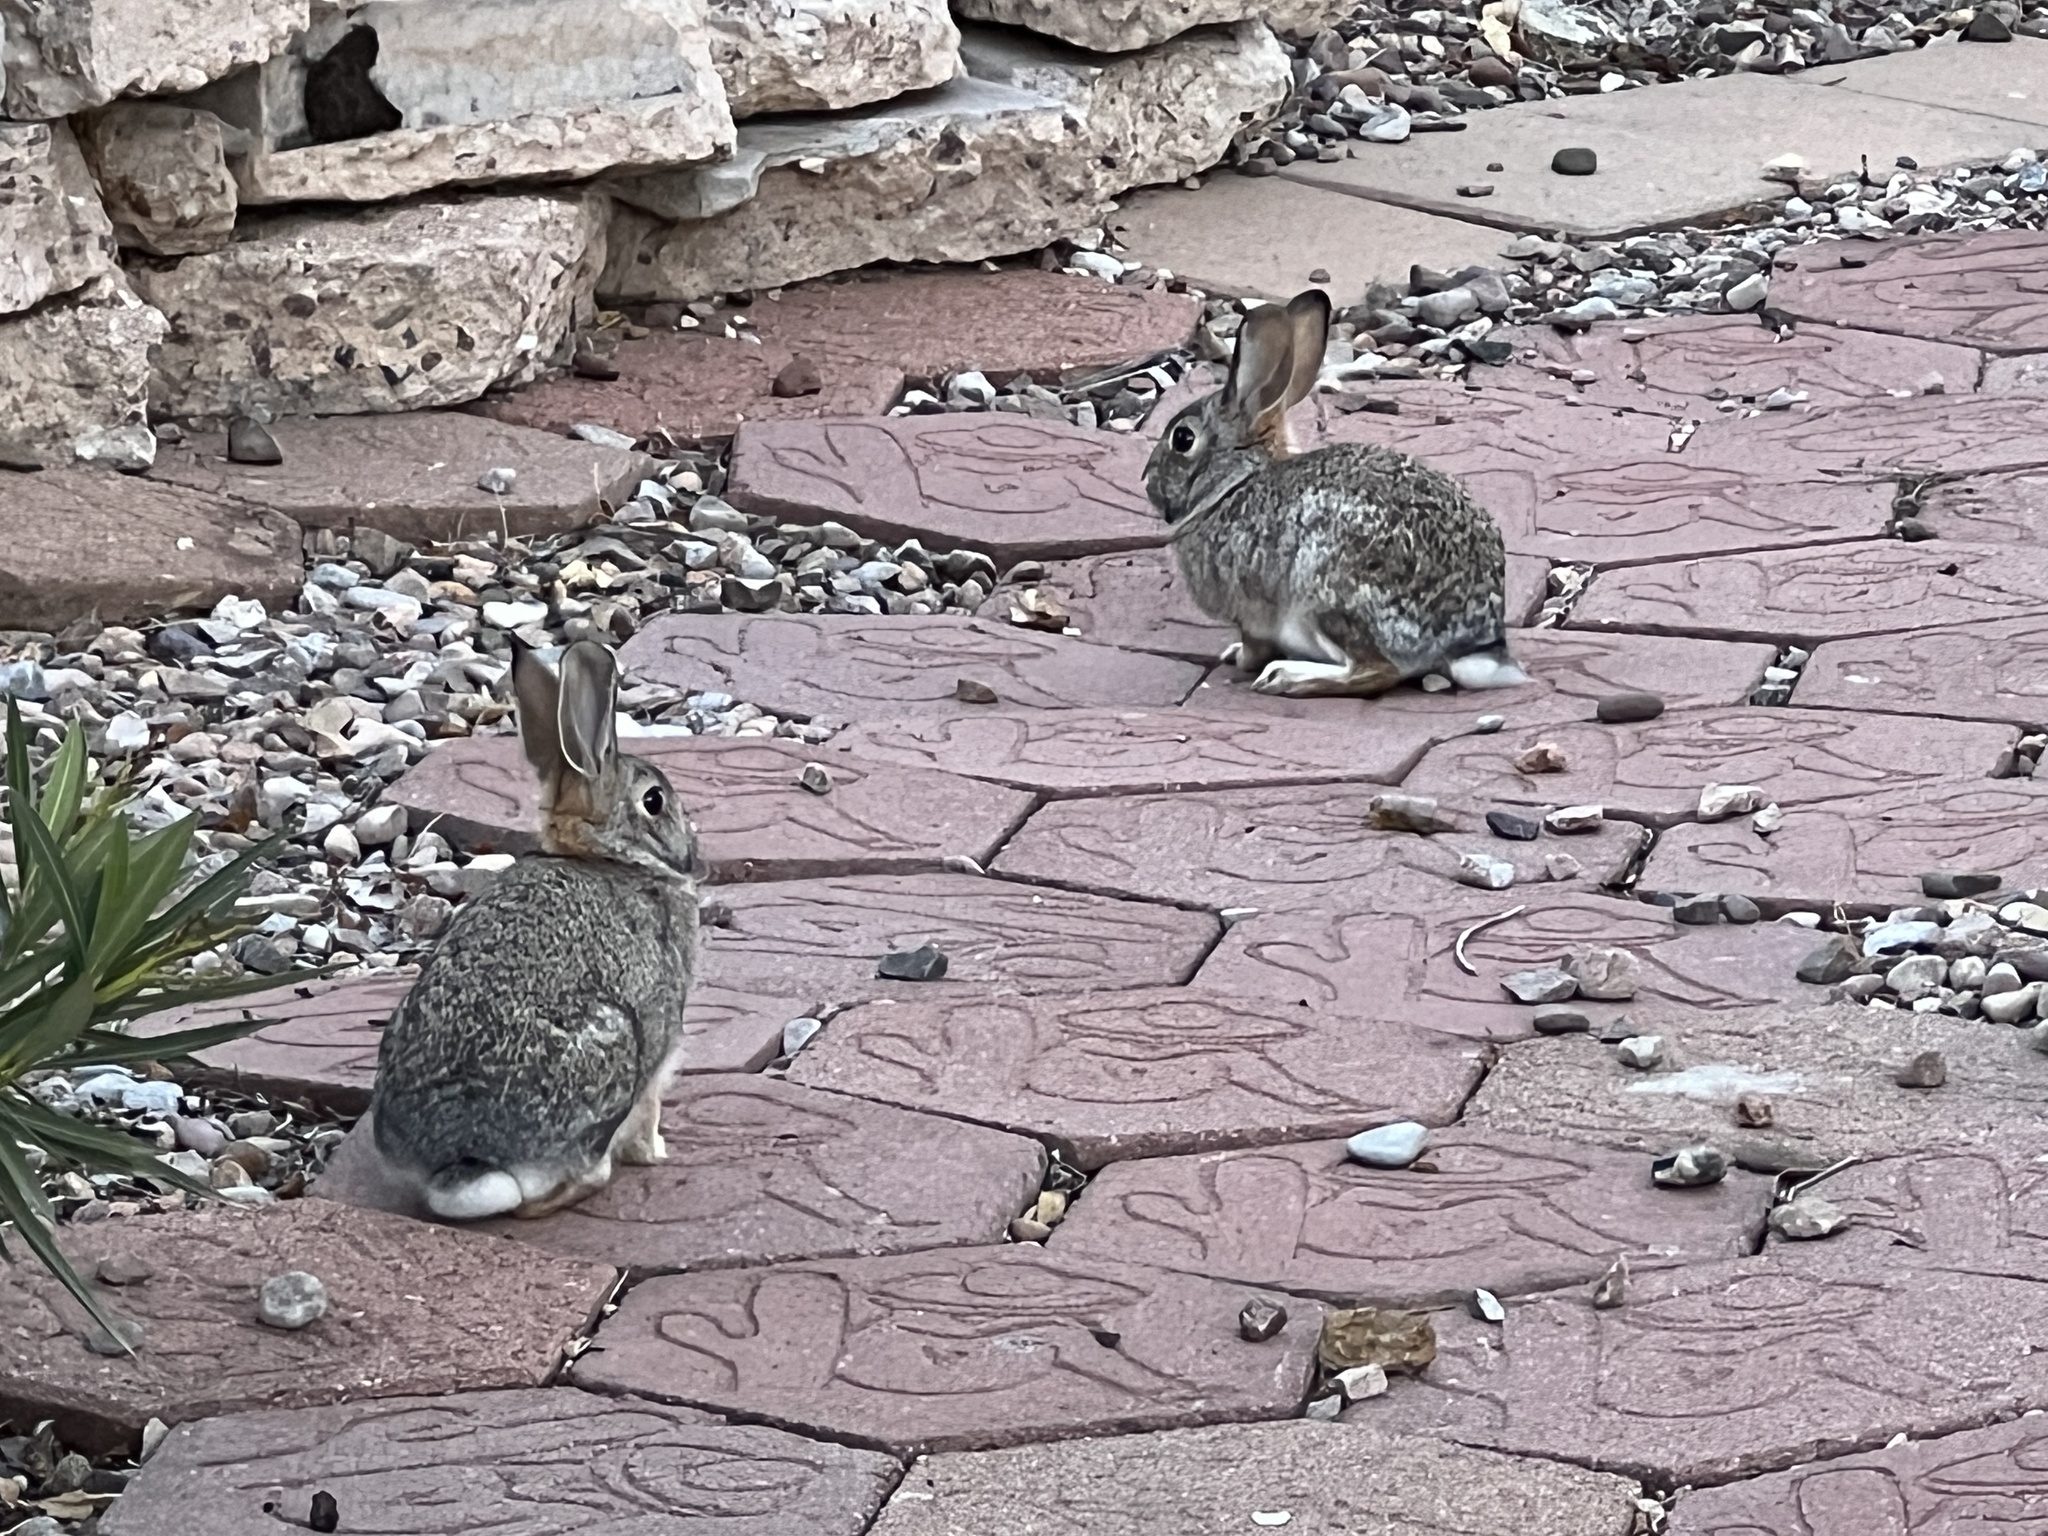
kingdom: Animalia
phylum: Chordata
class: Mammalia
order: Lagomorpha
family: Leporidae
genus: Sylvilagus
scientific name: Sylvilagus audubonii
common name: Desert cottontail
